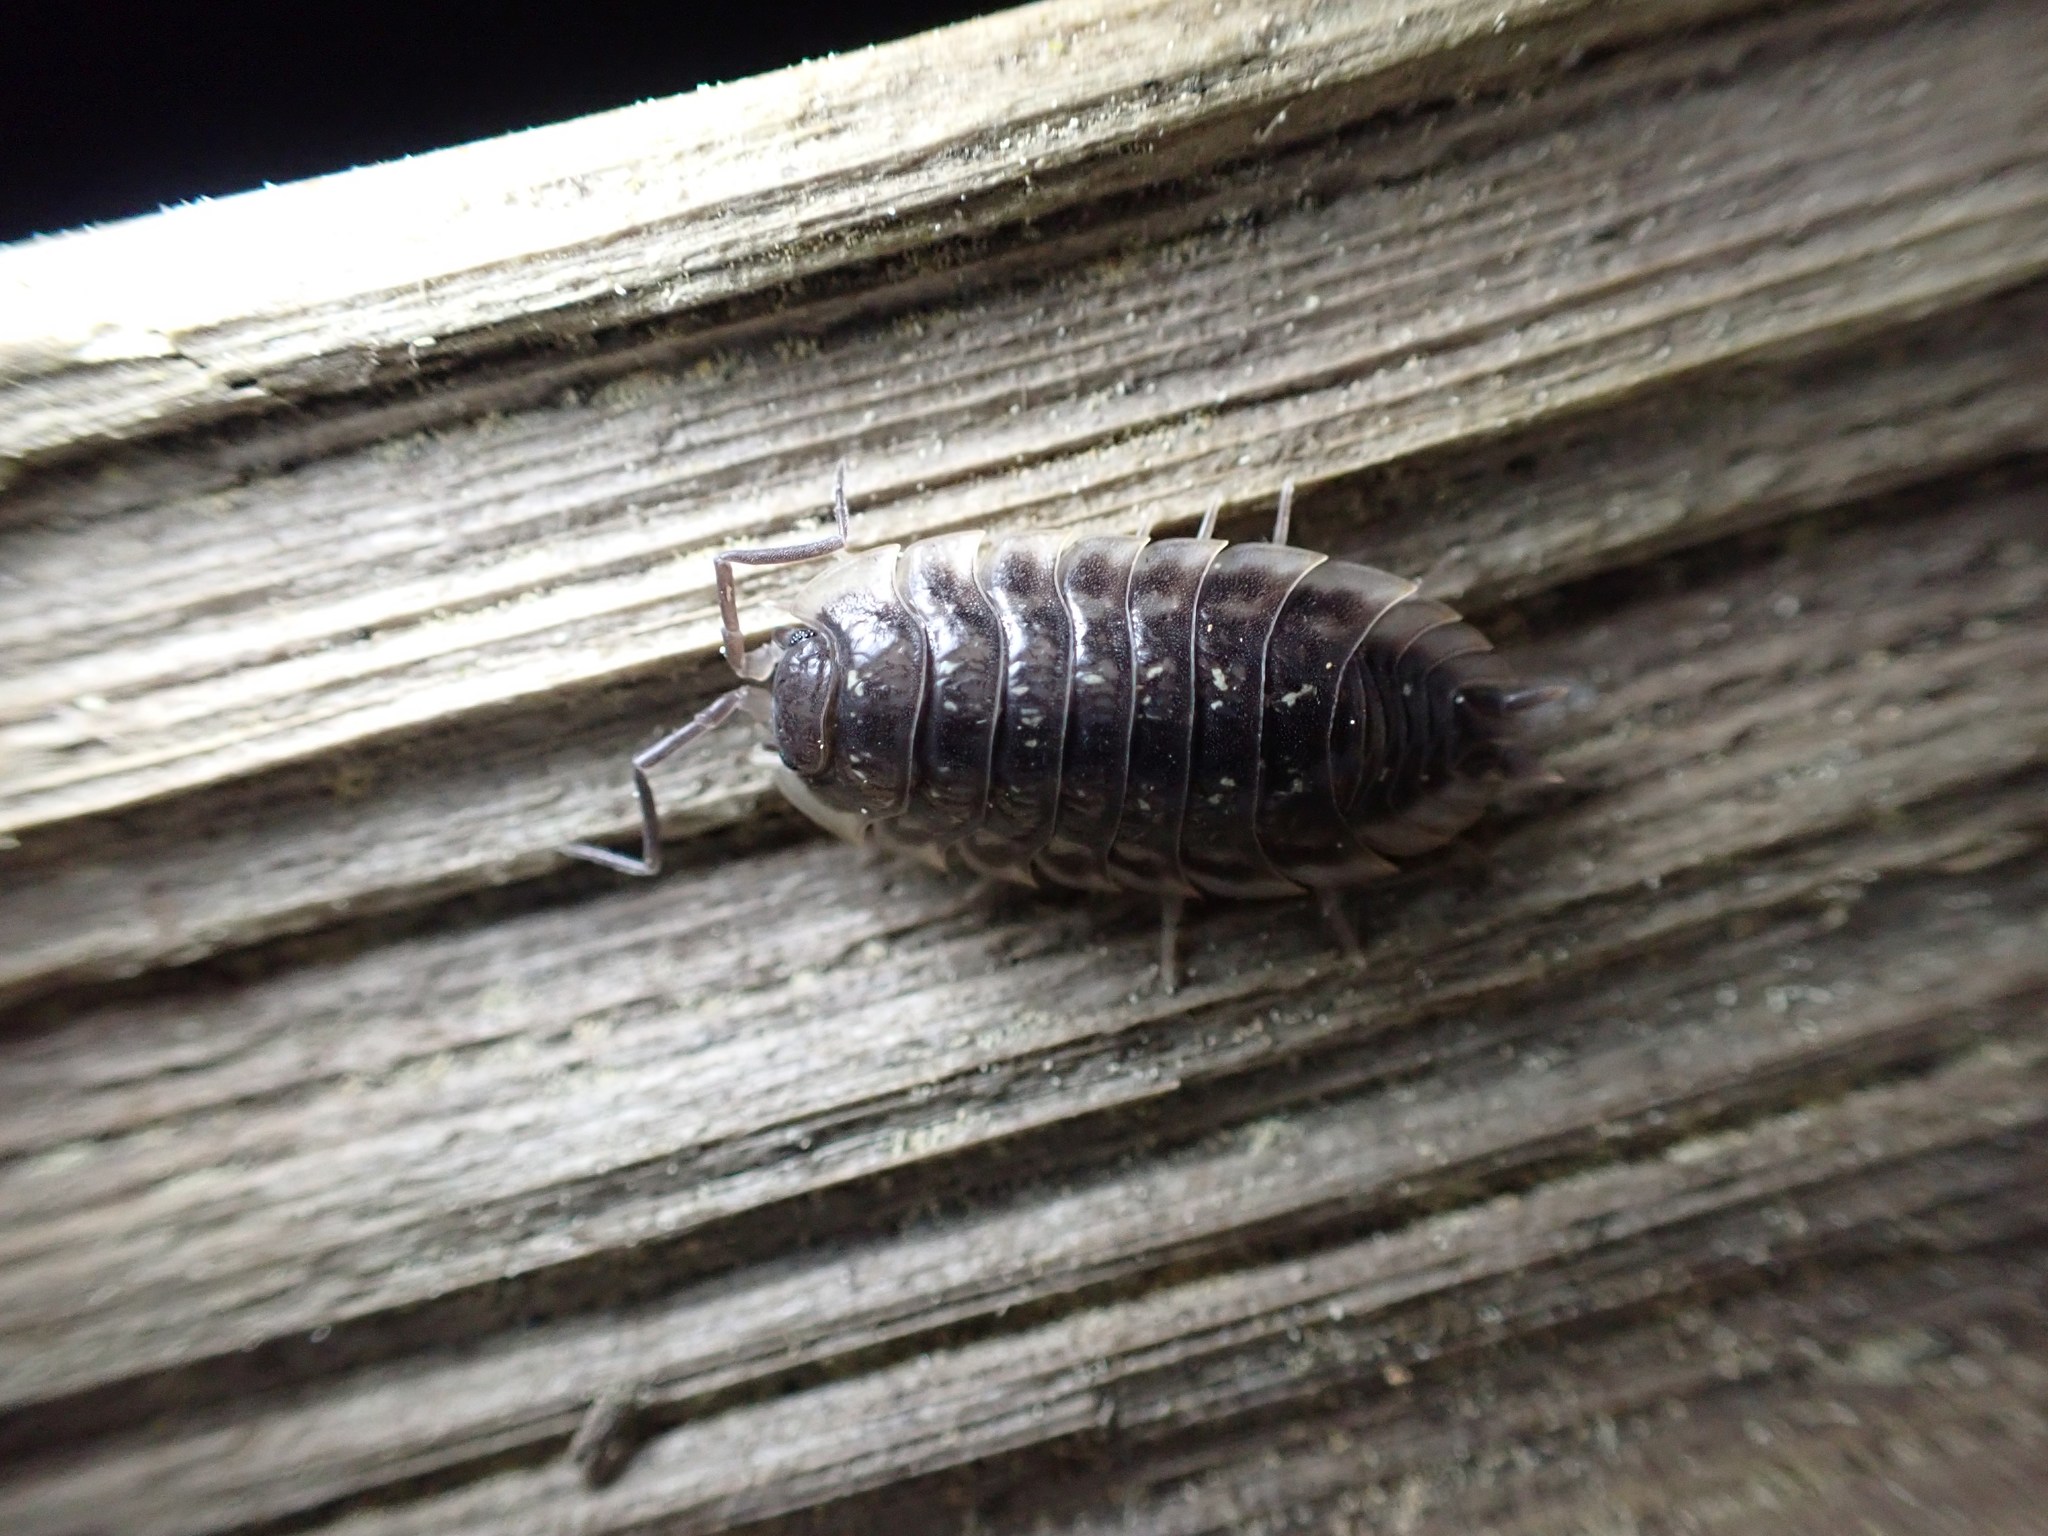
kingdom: Animalia
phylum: Arthropoda
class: Malacostraca
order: Isopoda
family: Oniscidae
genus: Oniscus
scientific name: Oniscus asellus
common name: Common shiny woodlouse
